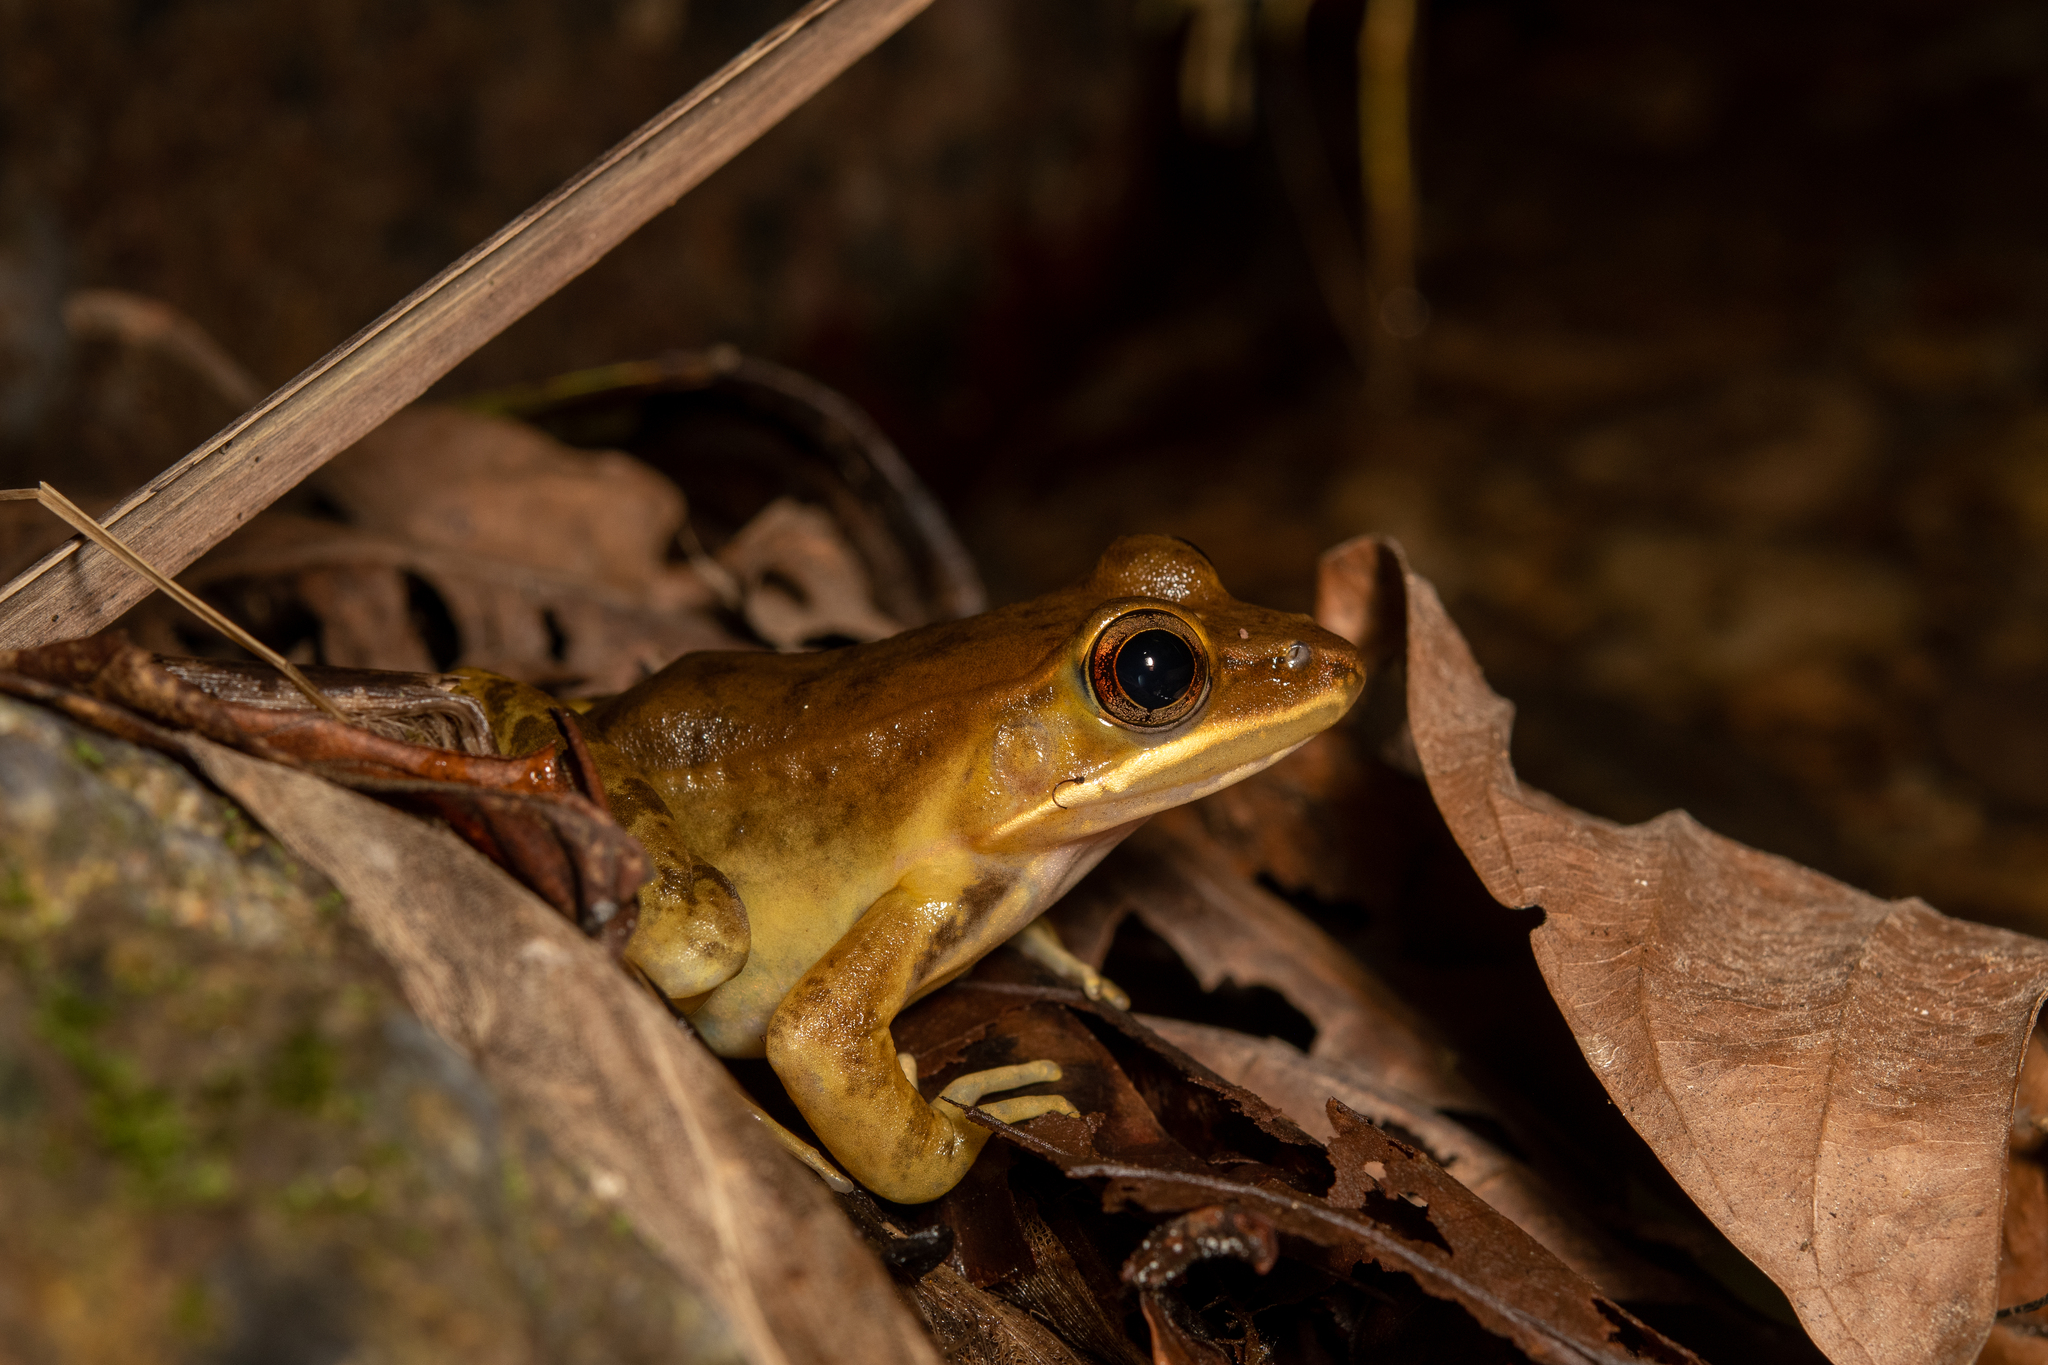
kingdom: Animalia
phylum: Chordata
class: Amphibia
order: Anura
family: Ranidae
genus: Lithobates
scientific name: Lithobates maculatus
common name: Highland frog
